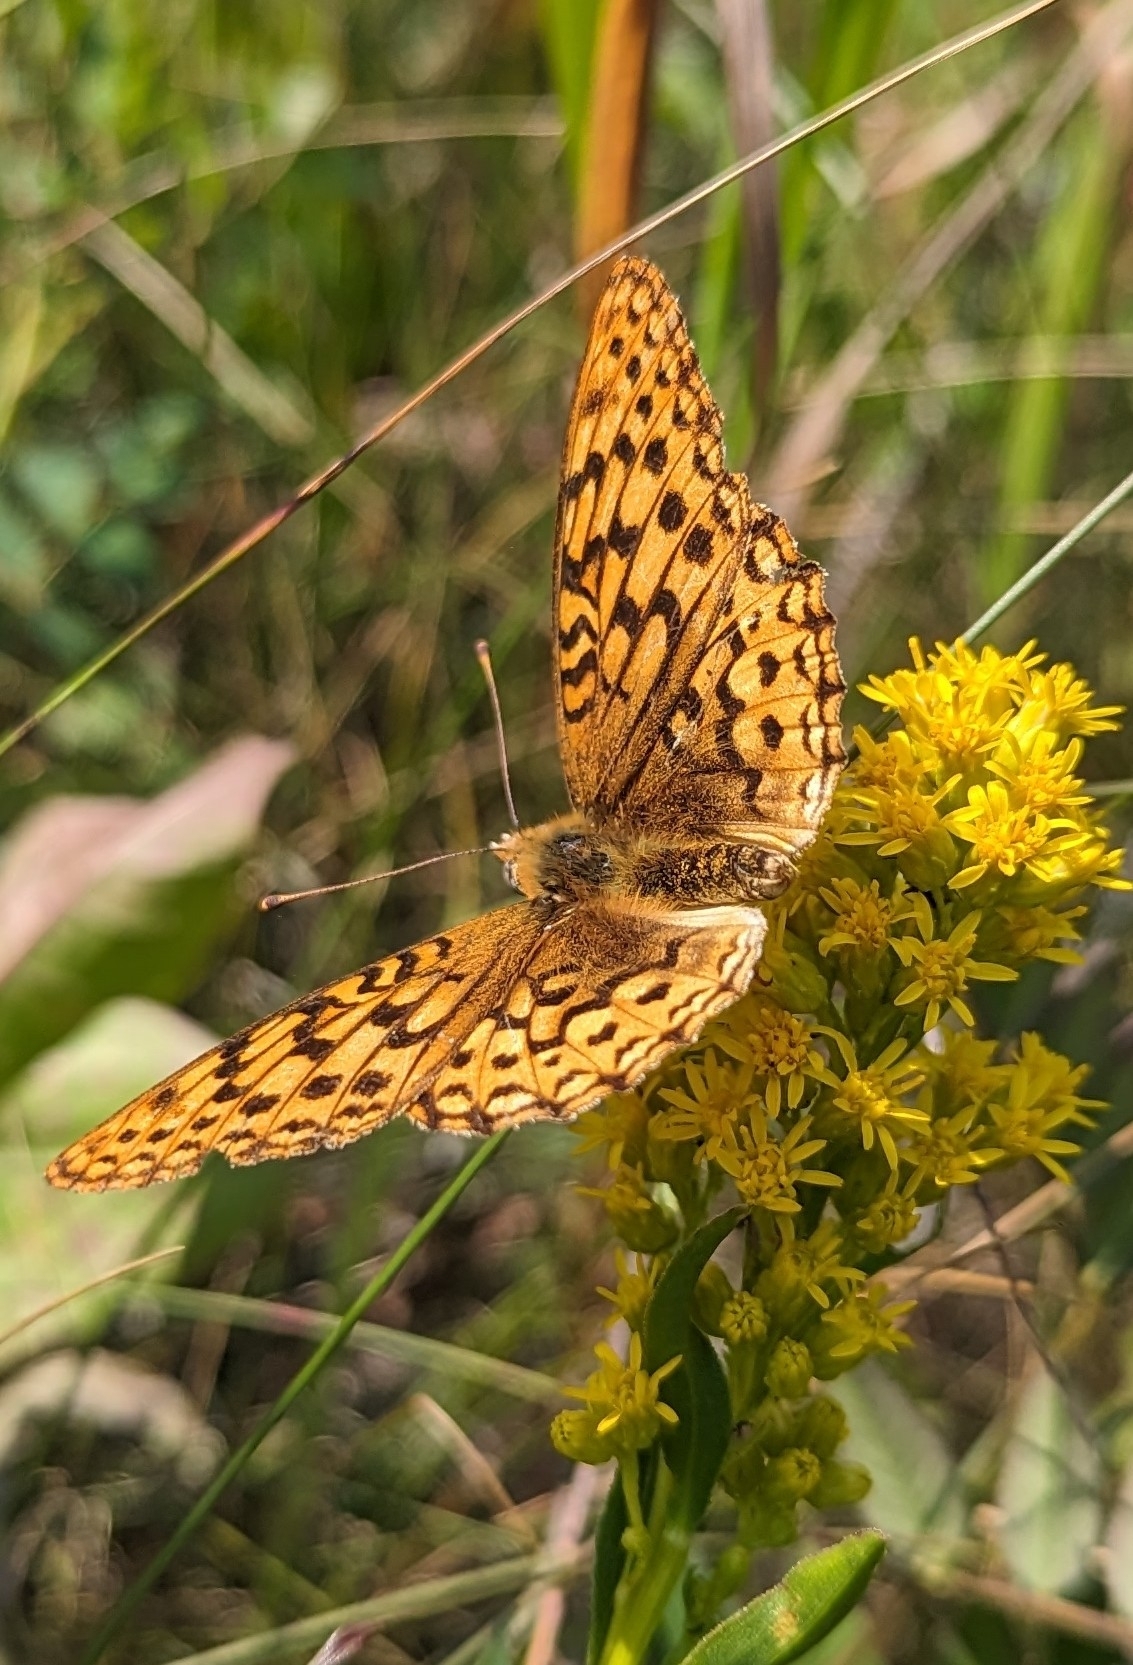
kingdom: Animalia
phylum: Arthropoda
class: Insecta
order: Lepidoptera
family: Nymphalidae
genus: Speyeria
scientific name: Speyeria zerene
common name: Zerene fritillary
